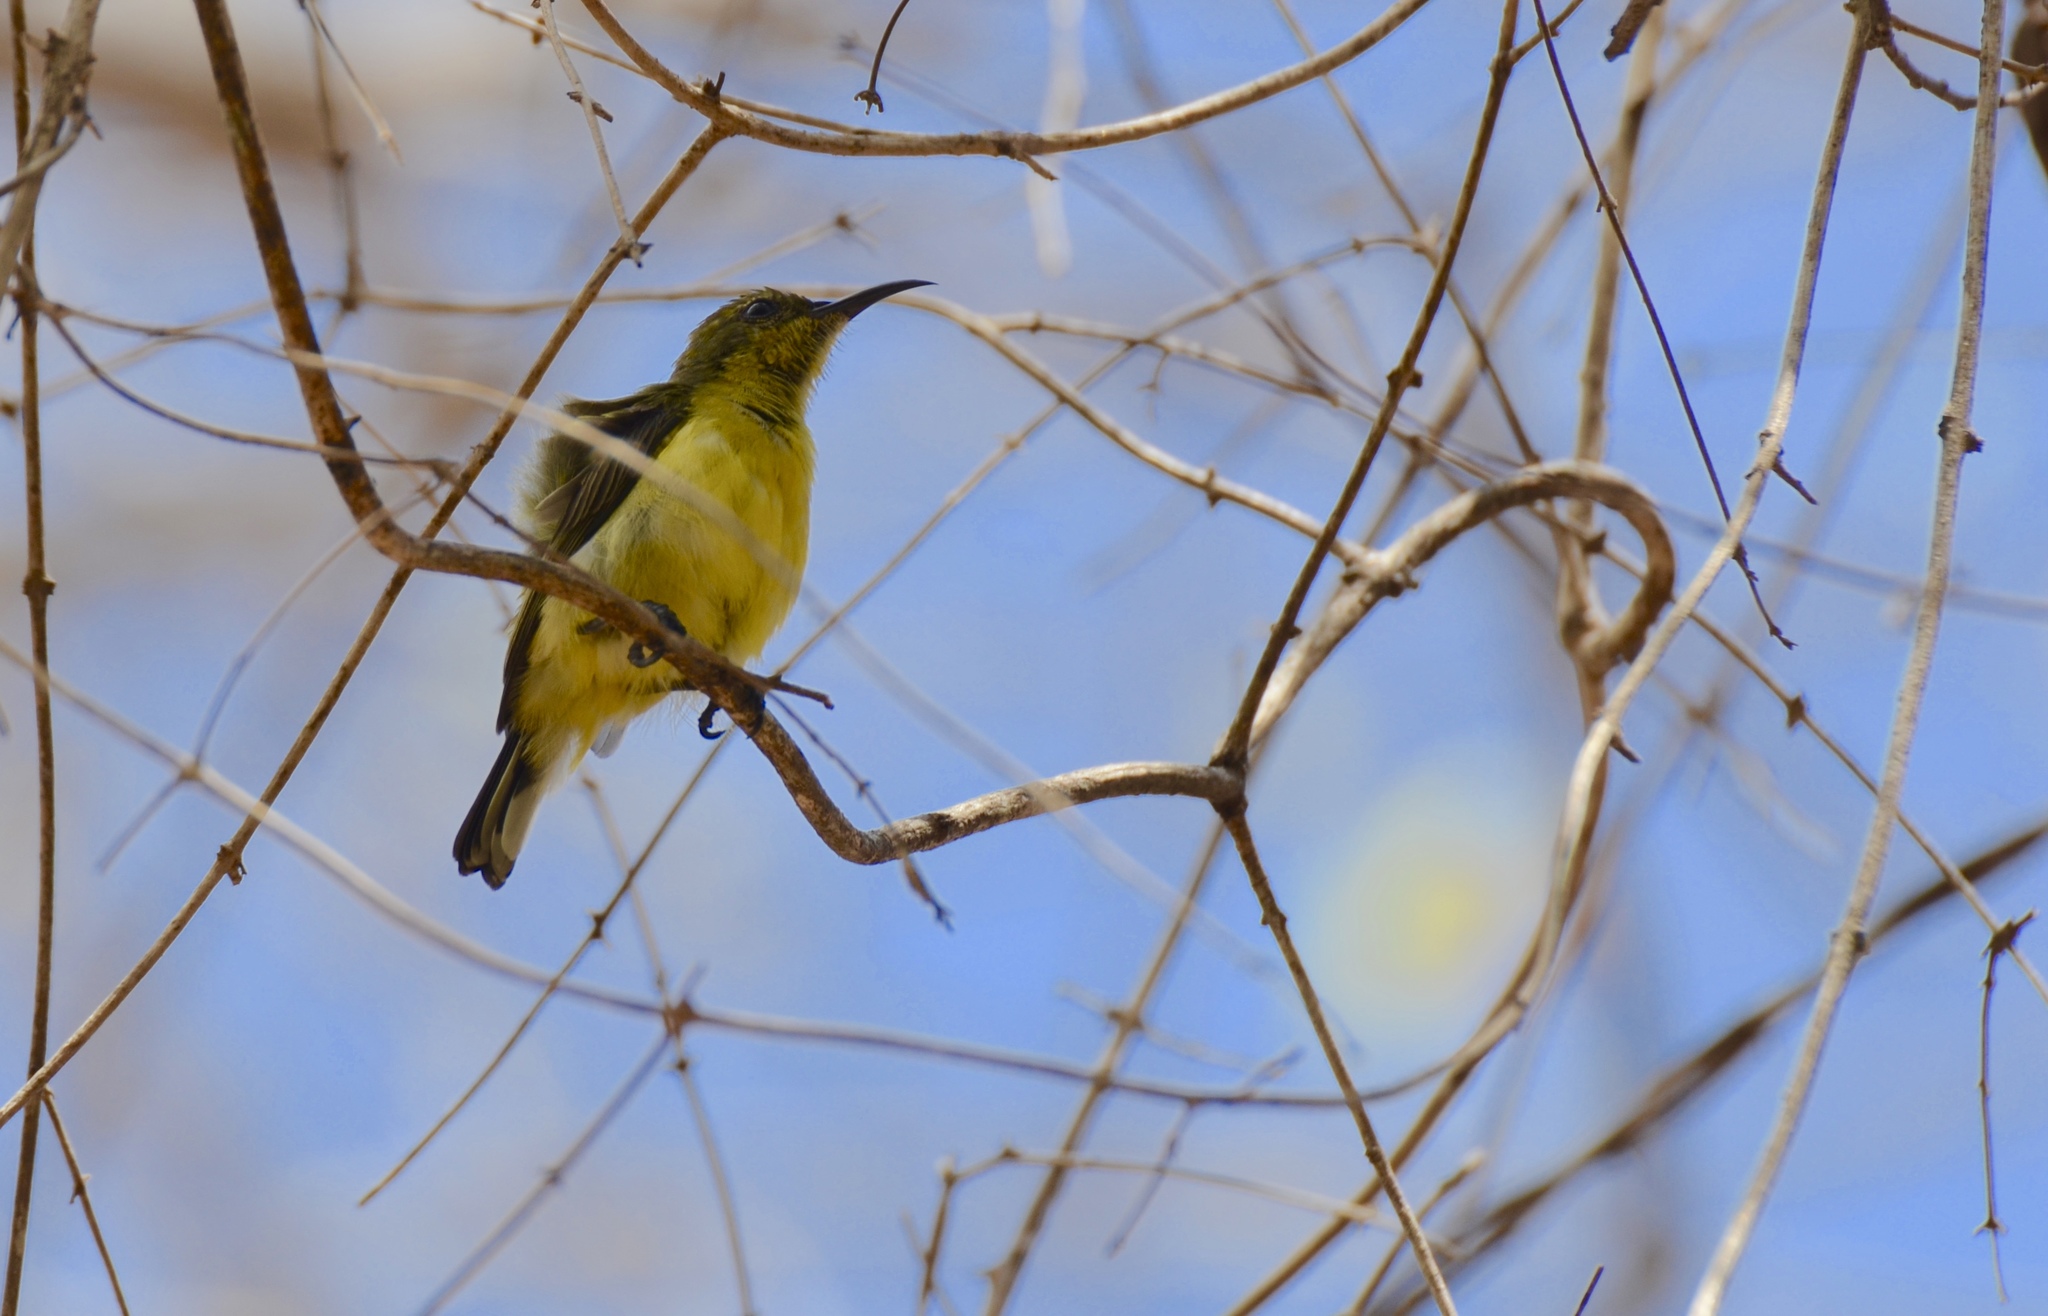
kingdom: Animalia
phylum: Chordata
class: Aves
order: Passeriformes
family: Nectariniidae
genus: Cinnyris
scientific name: Cinnyris
